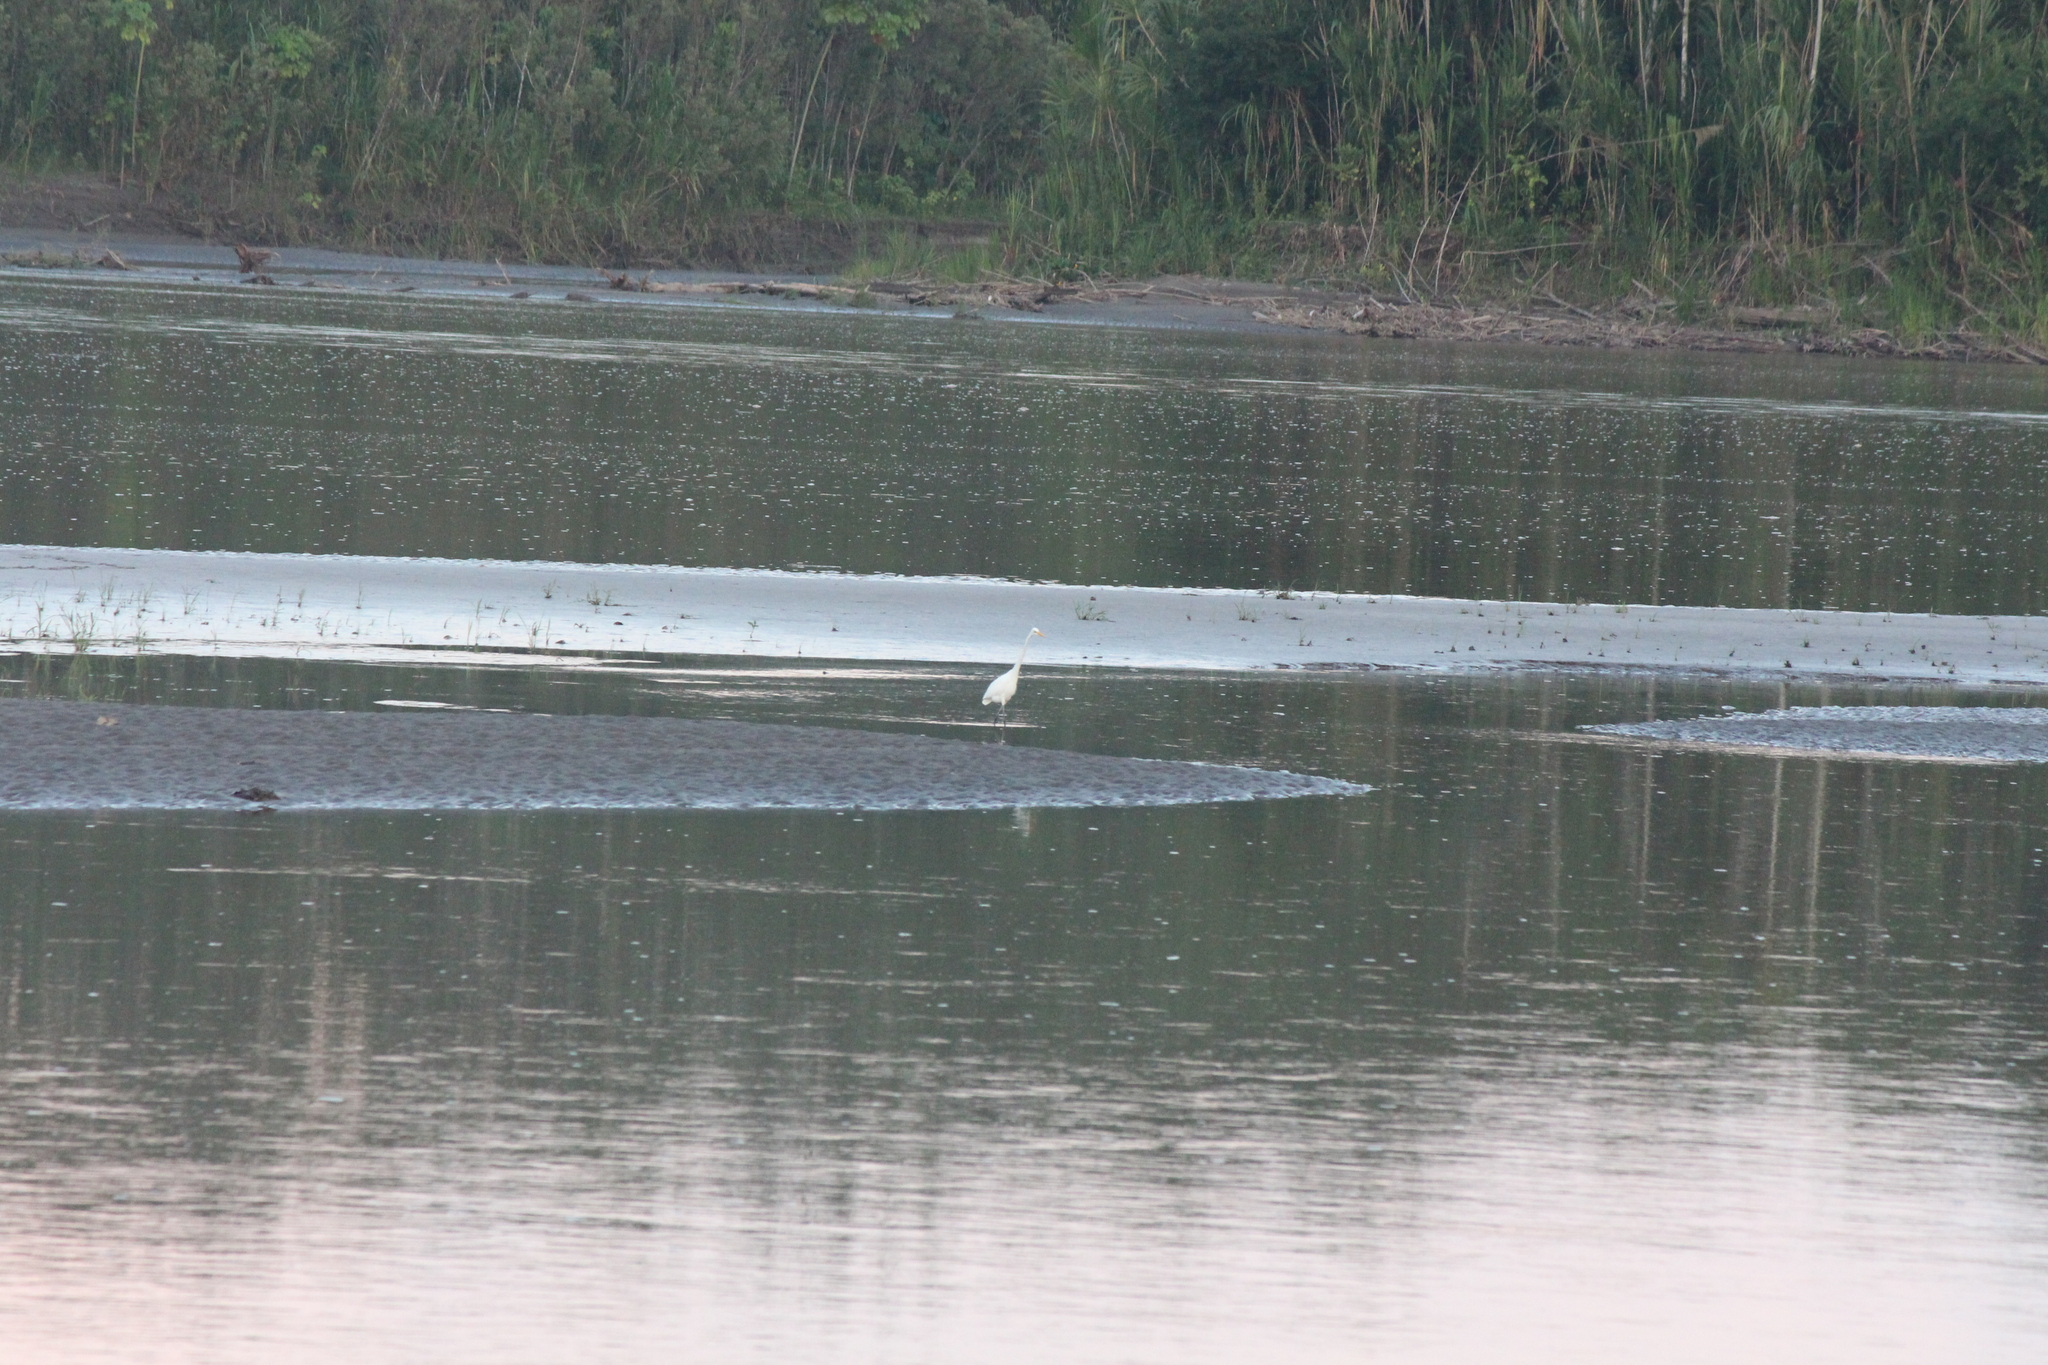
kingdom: Animalia
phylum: Chordata
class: Aves
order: Pelecaniformes
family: Ardeidae
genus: Ardea
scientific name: Ardea alba
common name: Great egret
